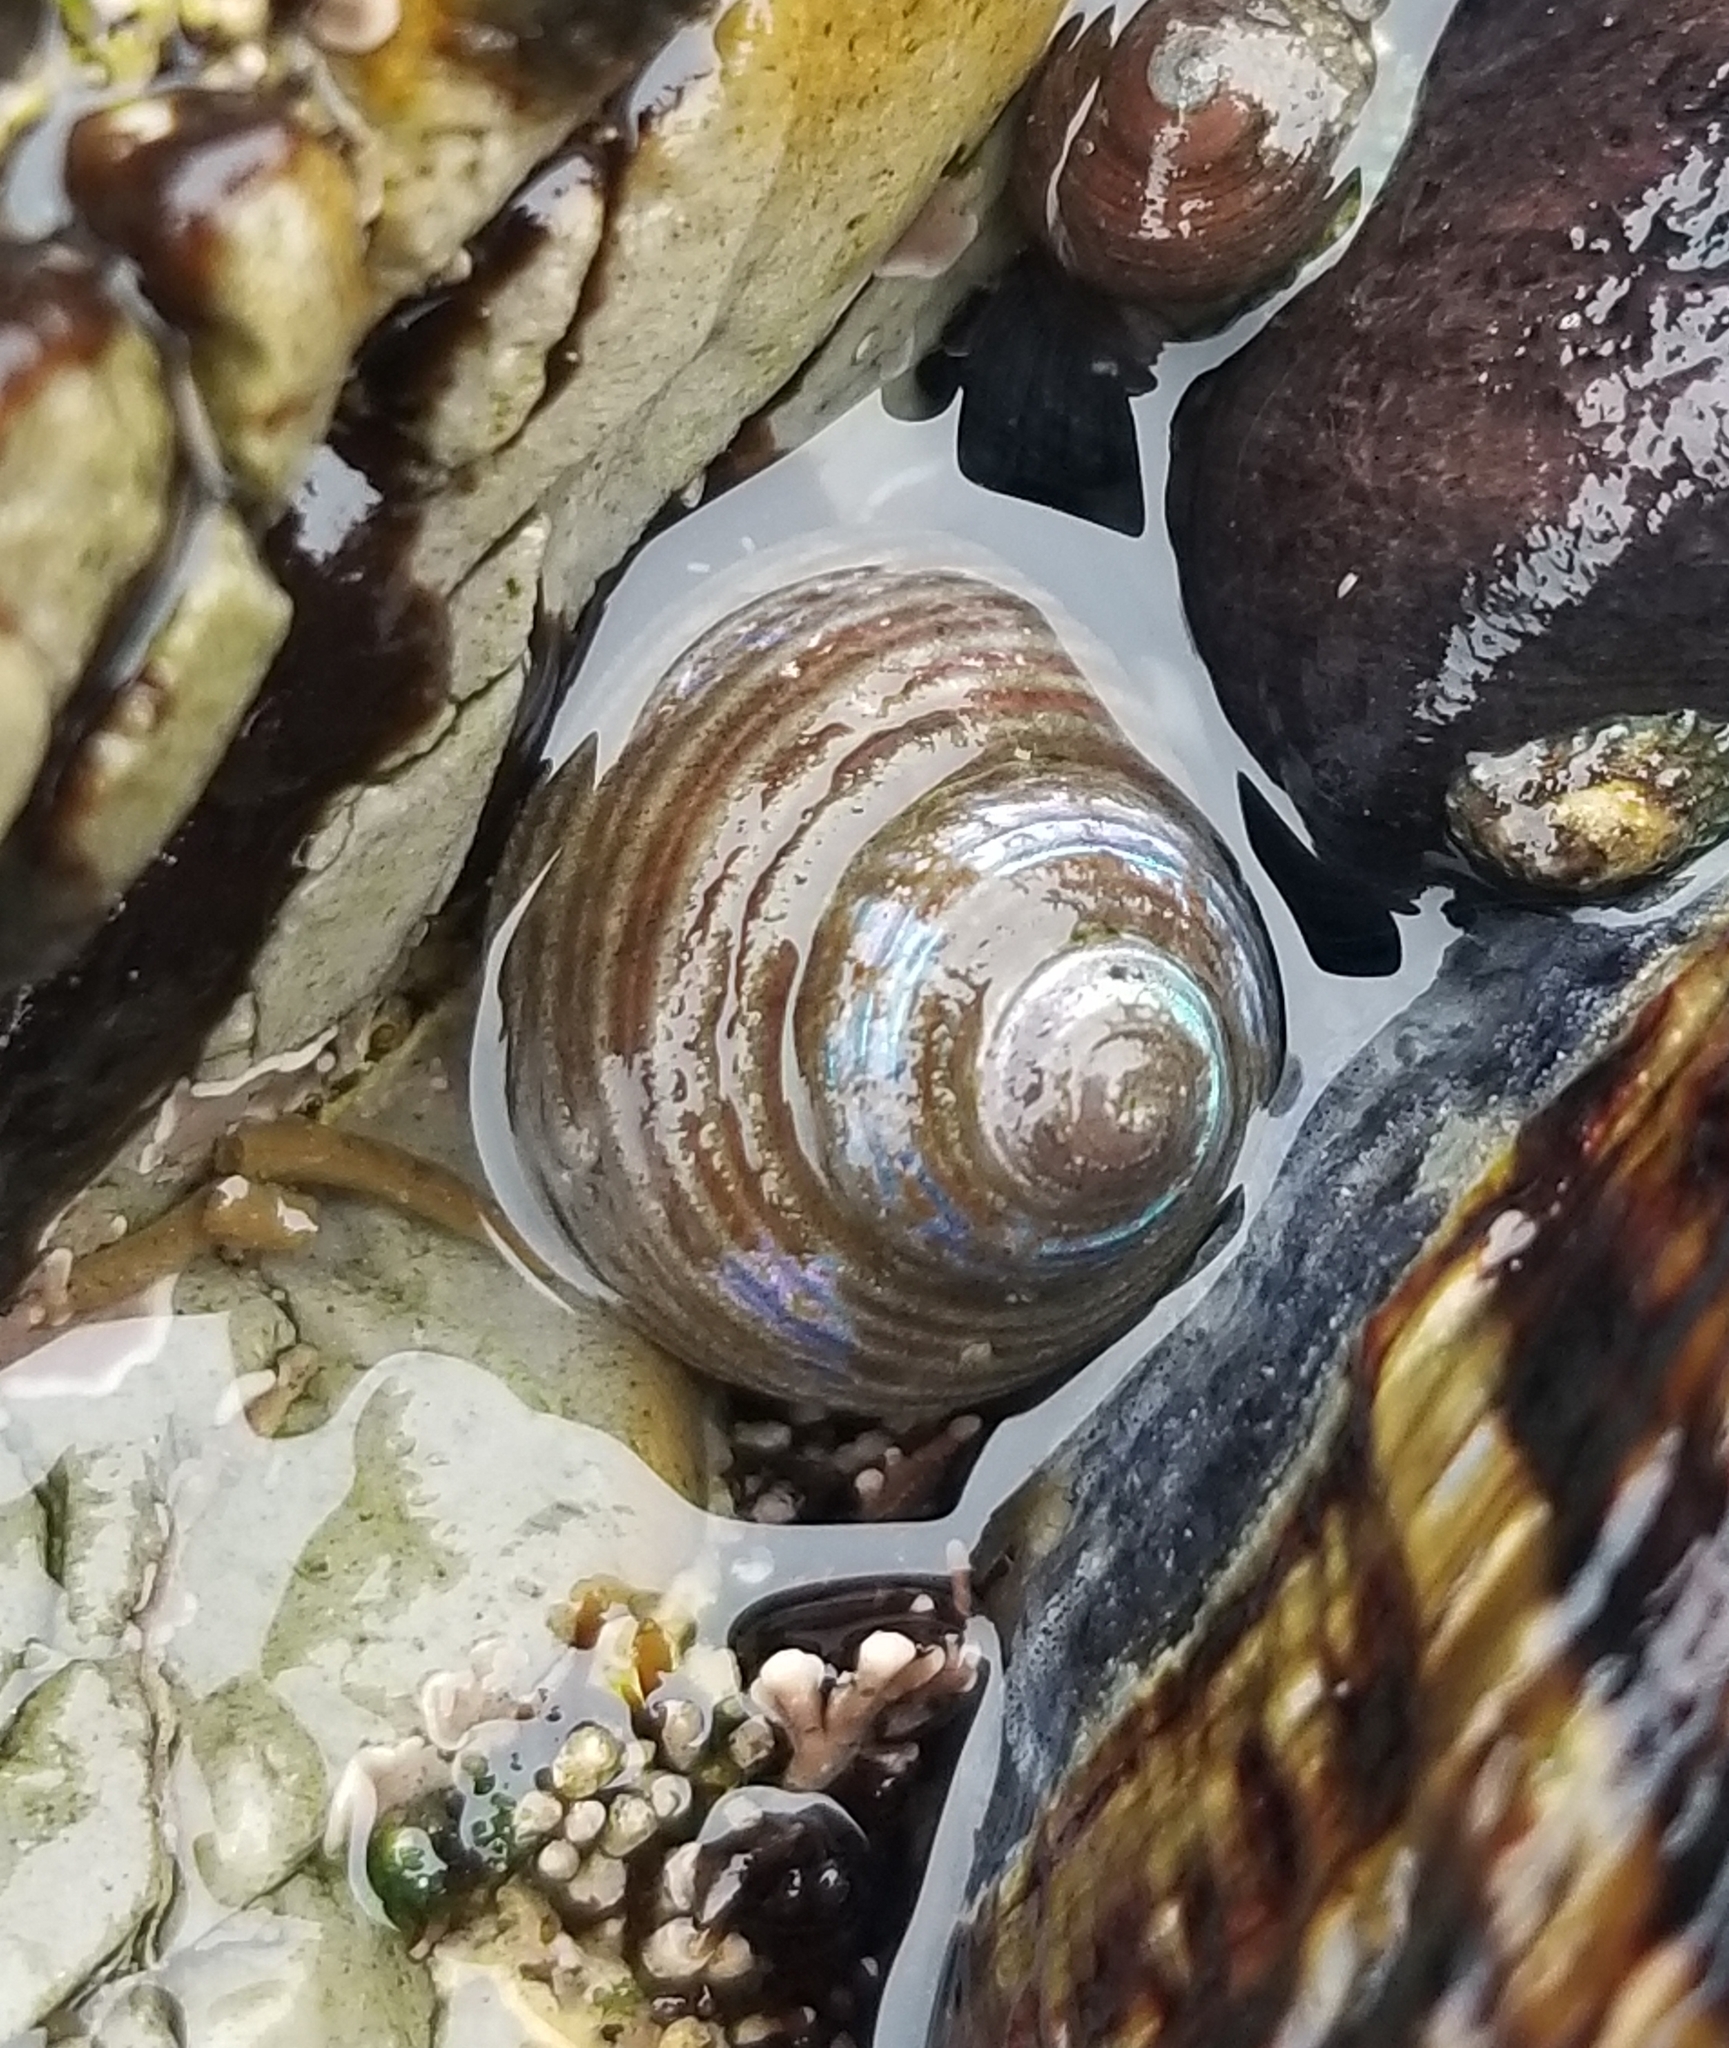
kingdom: Animalia
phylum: Mollusca
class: Gastropoda
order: Trochida
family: Calliostomatidae
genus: Calliostoma
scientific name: Calliostoma ligatum
